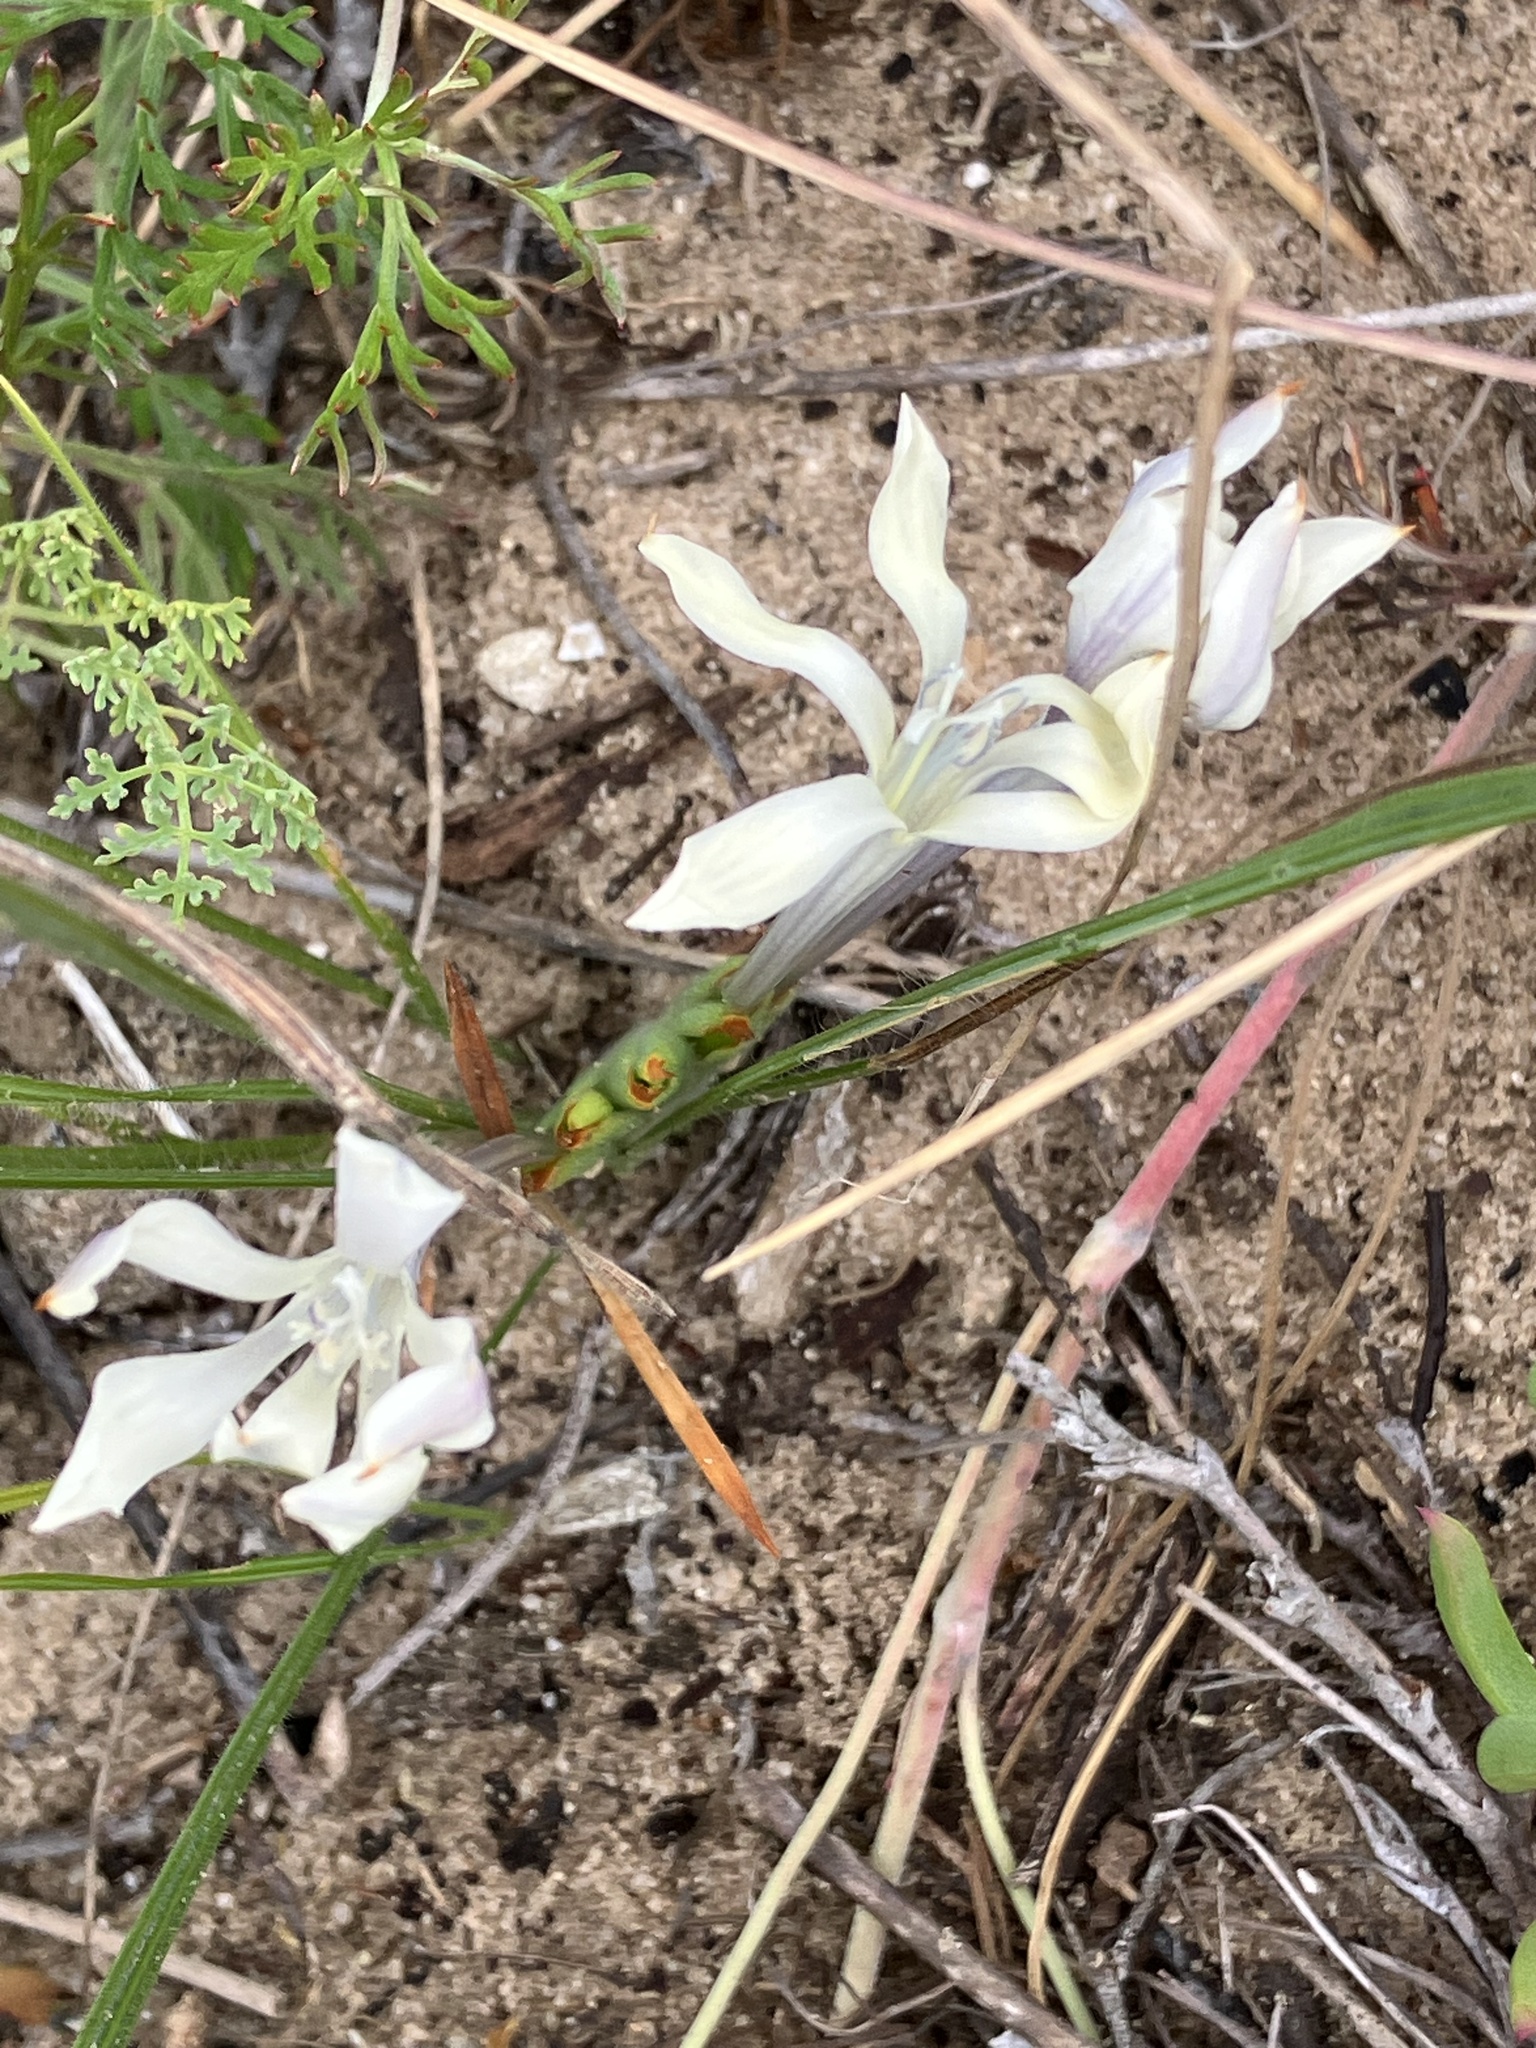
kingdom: Plantae
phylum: Tracheophyta
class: Liliopsida
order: Asparagales
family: Iridaceae
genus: Babiana
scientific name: Babiana tubiflora
